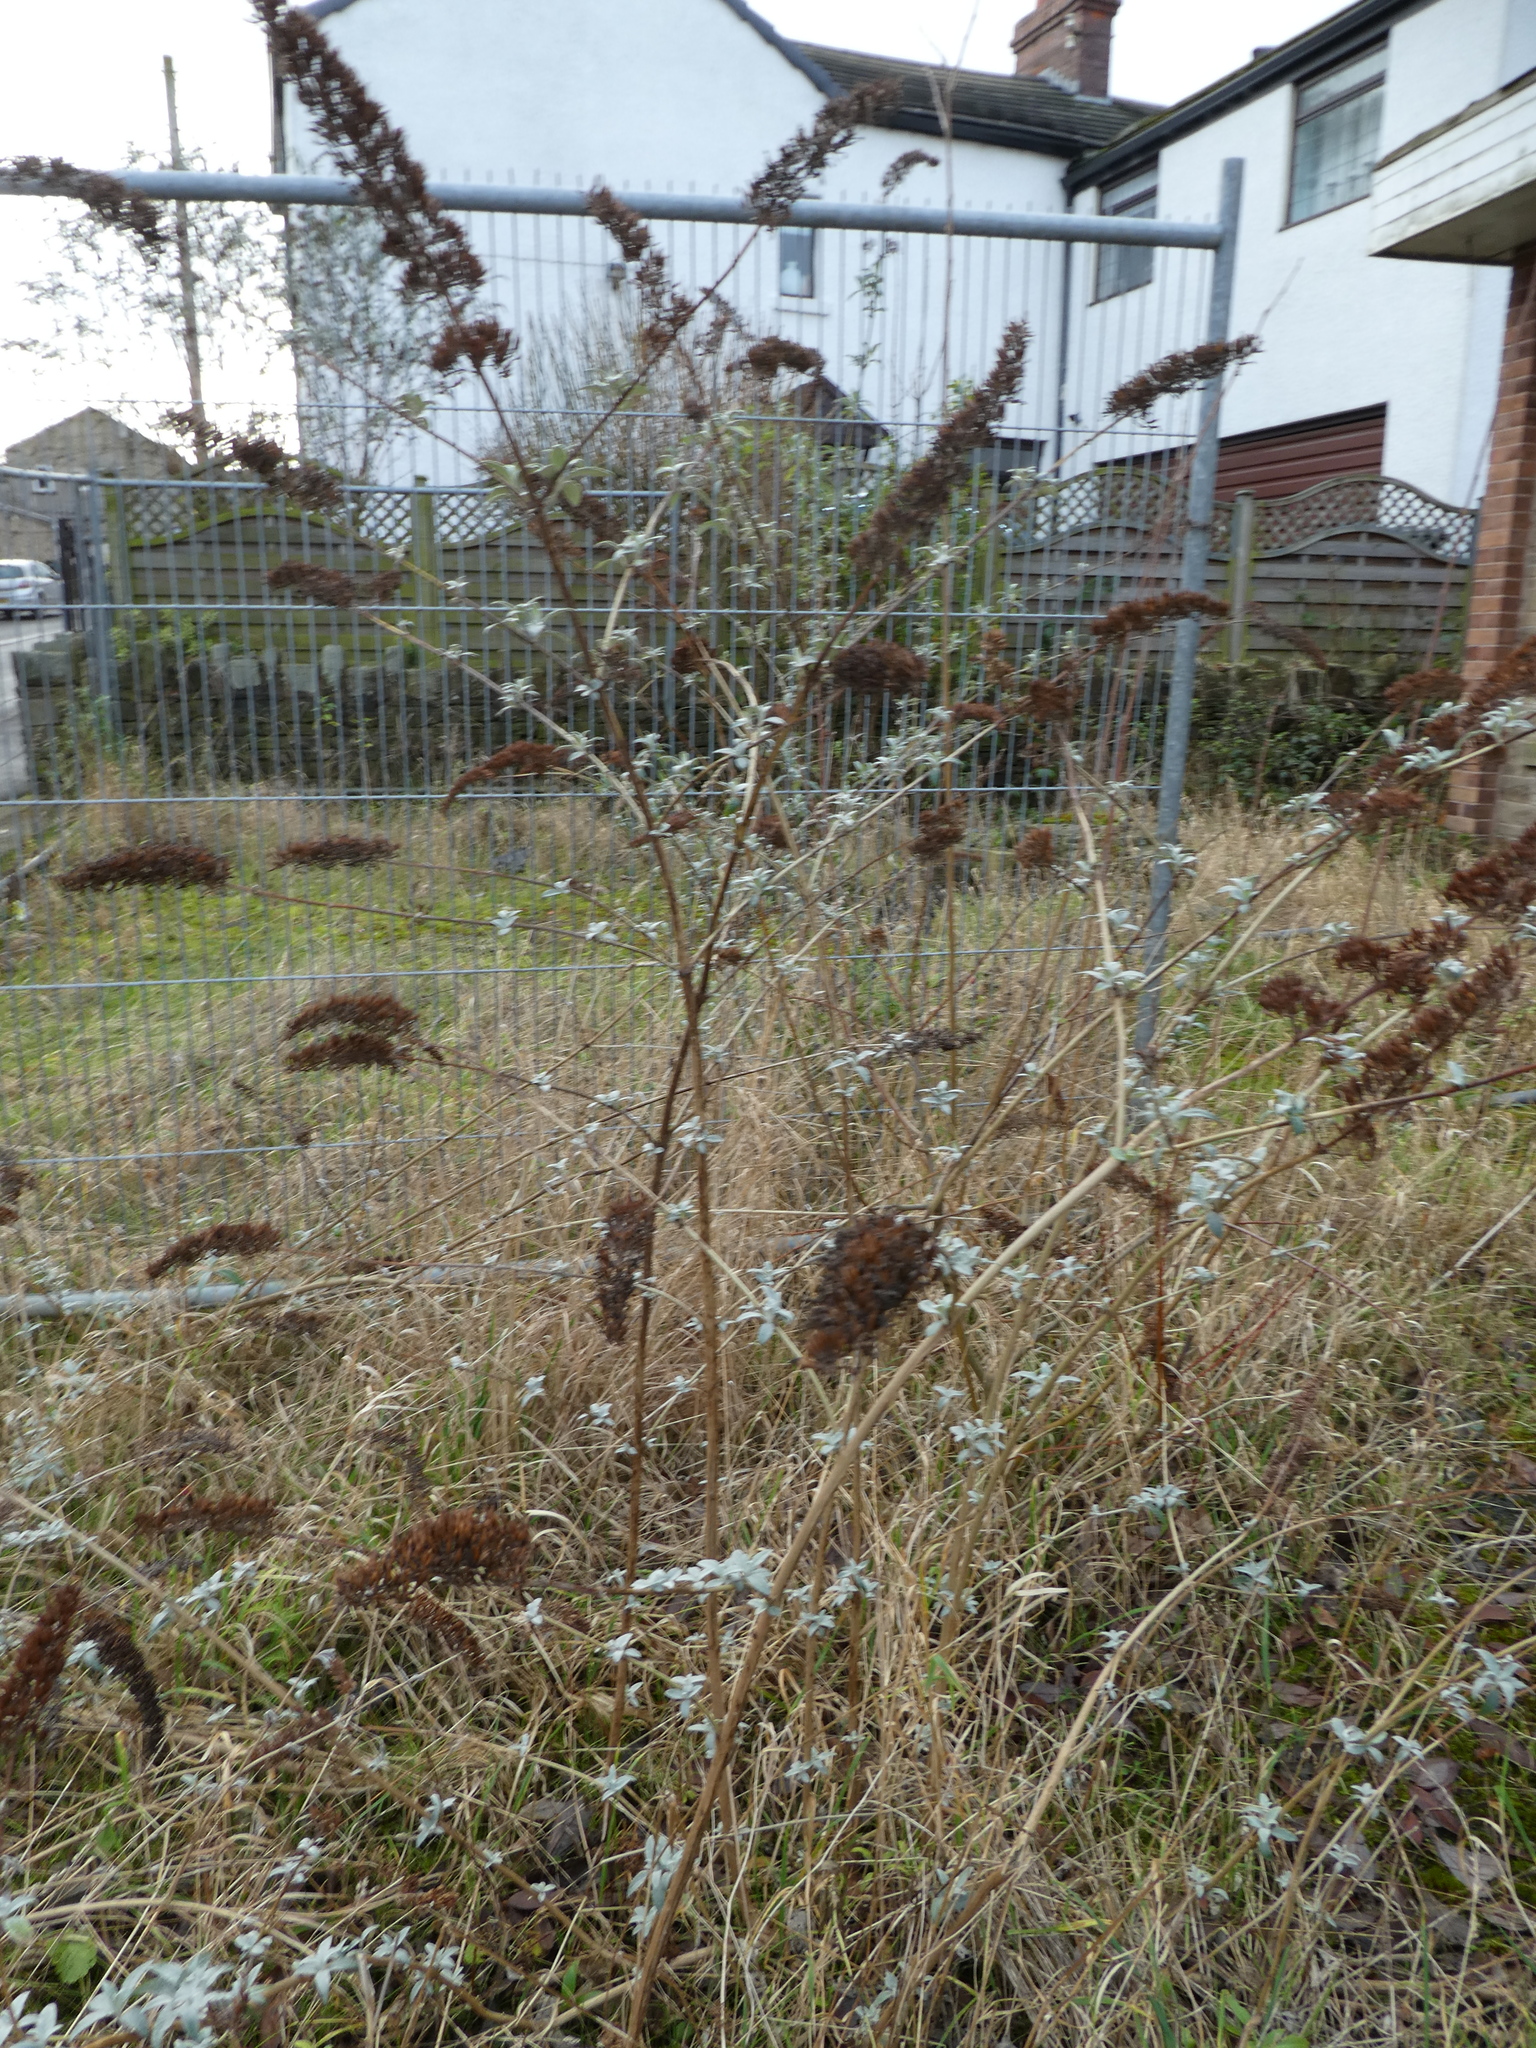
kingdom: Plantae
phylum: Tracheophyta
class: Magnoliopsida
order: Lamiales
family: Scrophulariaceae
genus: Buddleja
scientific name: Buddleja davidii
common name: Butterfly-bush
